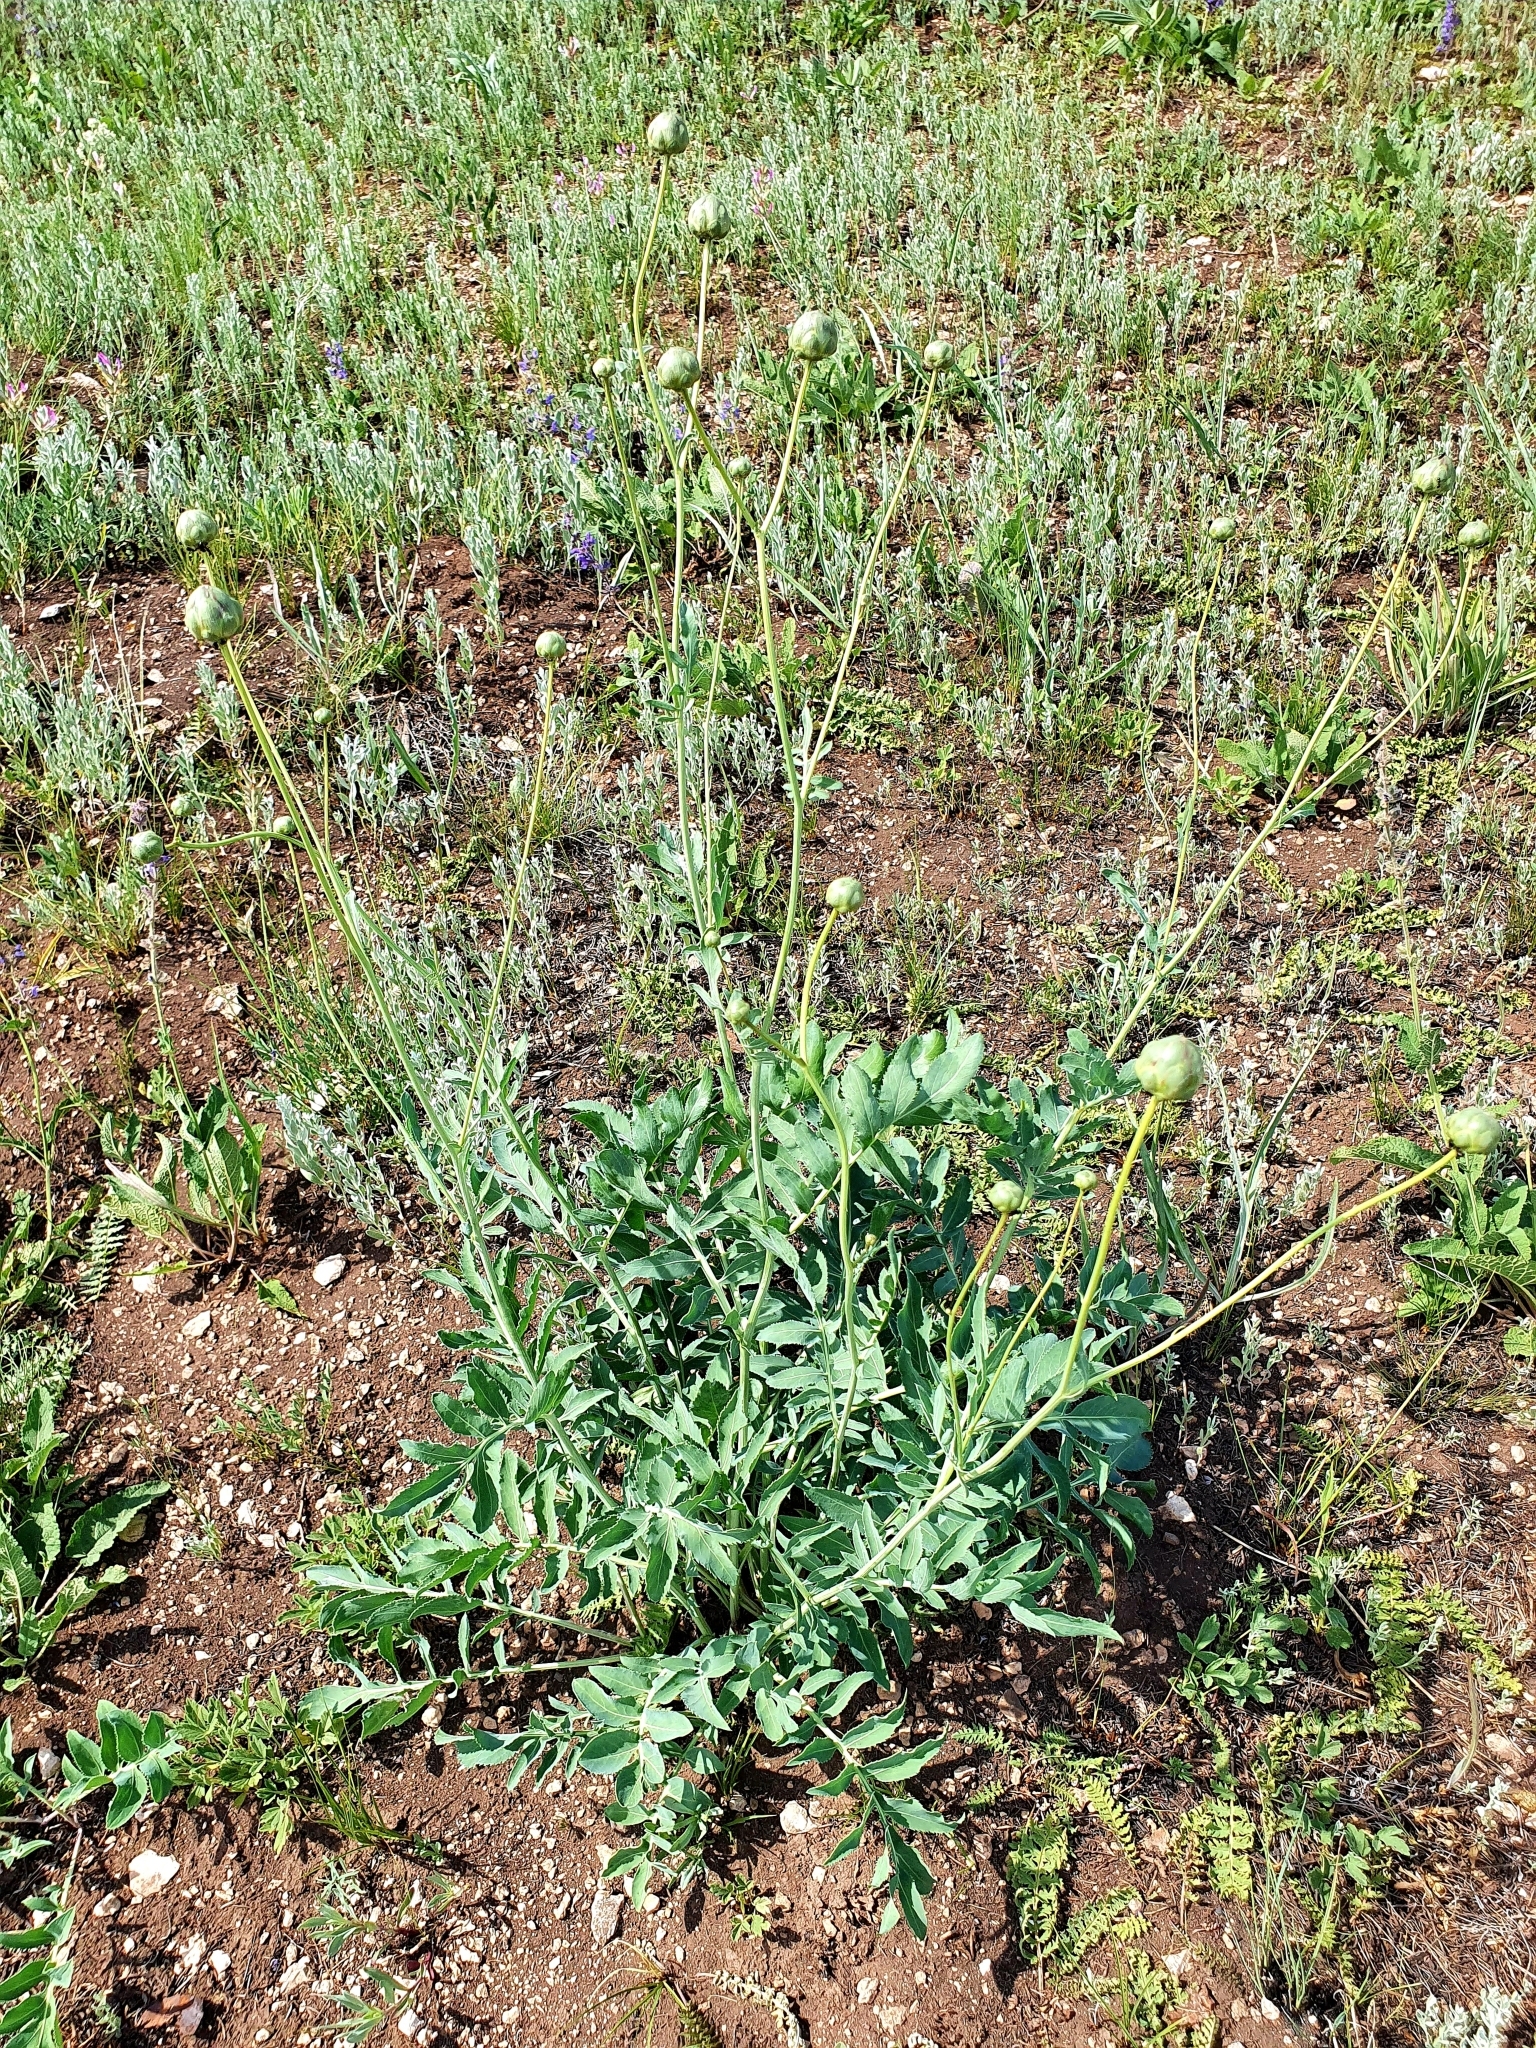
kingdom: Plantae
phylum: Tracheophyta
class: Magnoliopsida
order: Asterales
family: Asteraceae
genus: Rhaponticoides
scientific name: Rhaponticoides ruthenica
